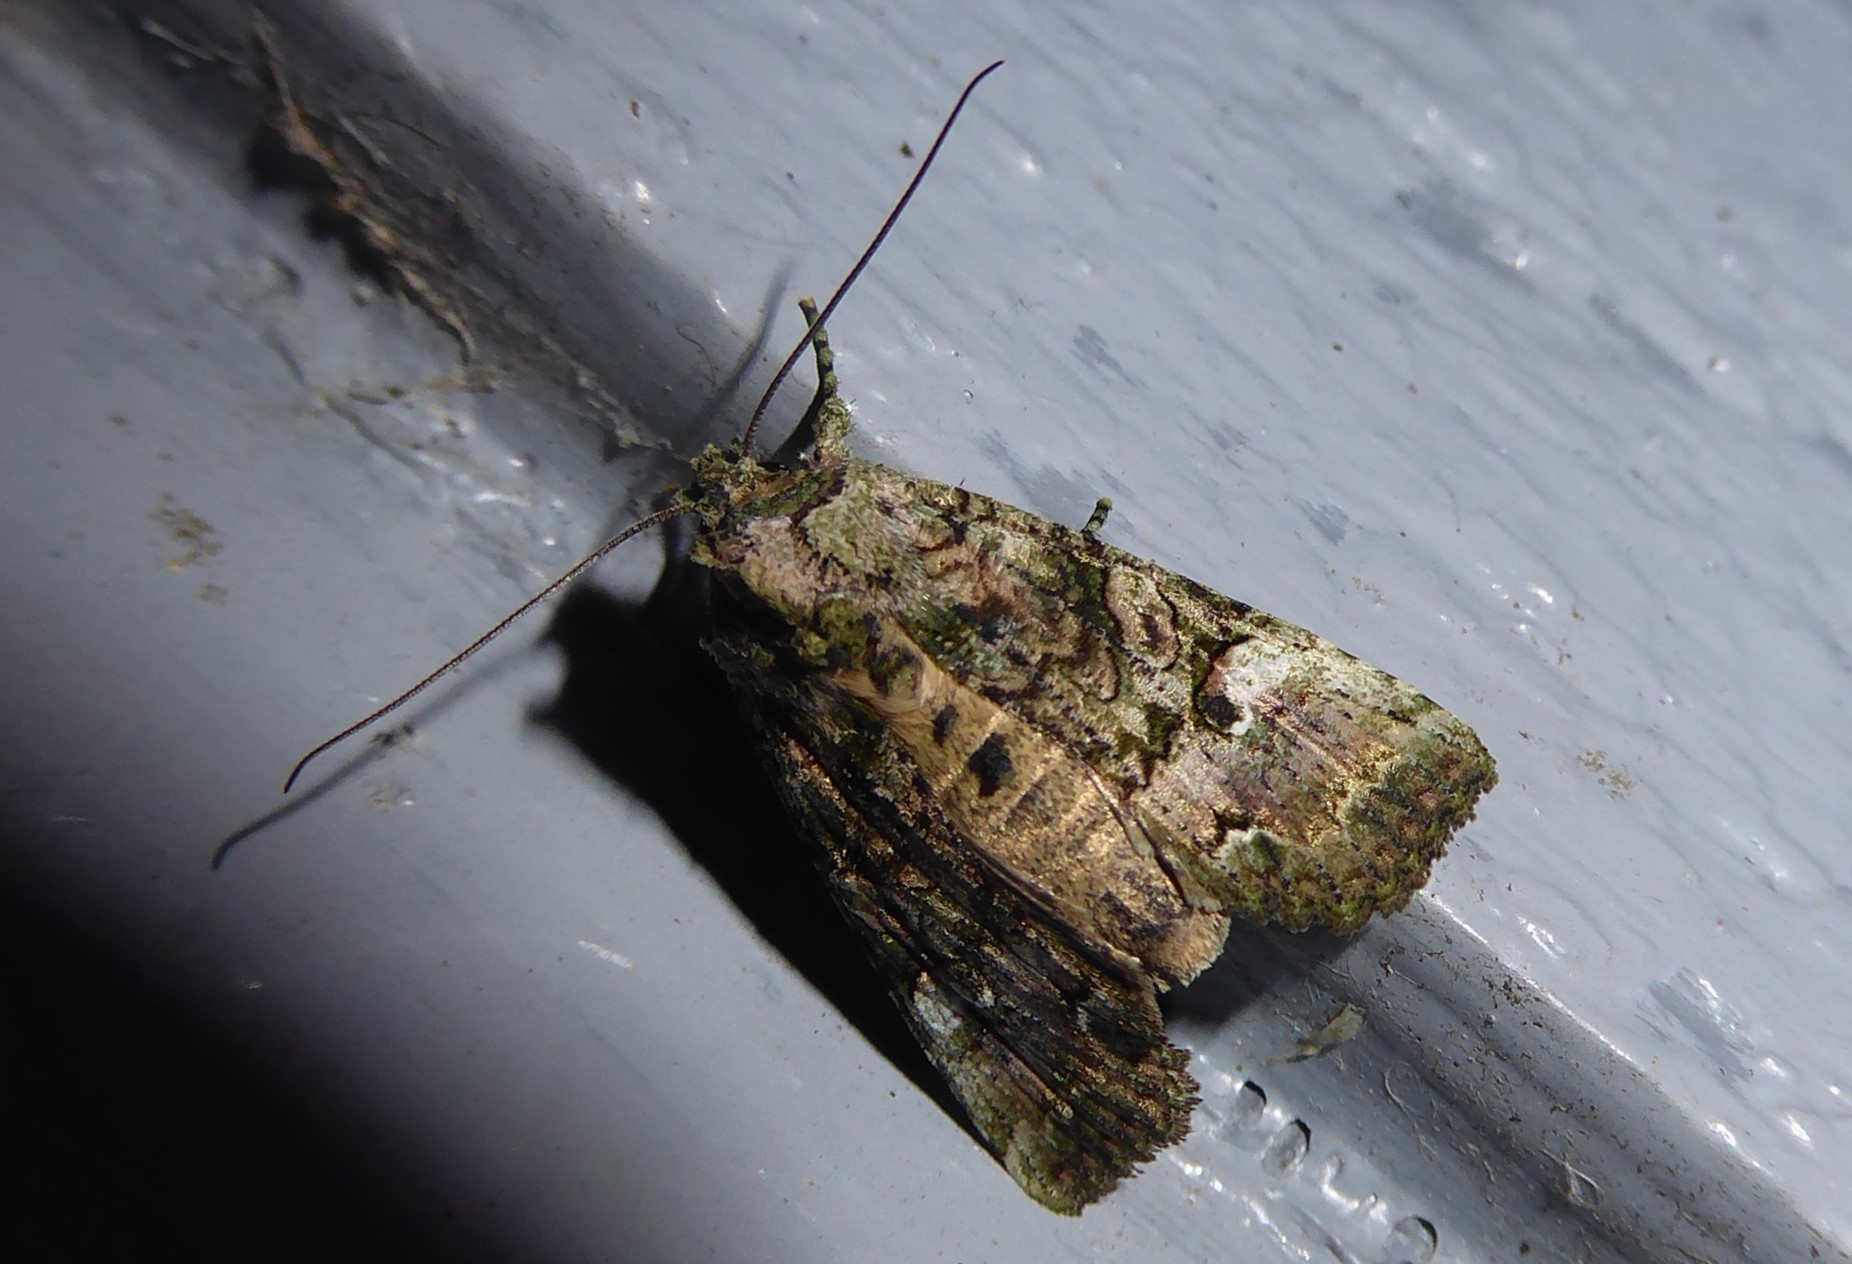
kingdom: Animalia
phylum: Arthropoda
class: Insecta
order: Lepidoptera
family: Noctuidae
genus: Meterana
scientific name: Meterana levis
